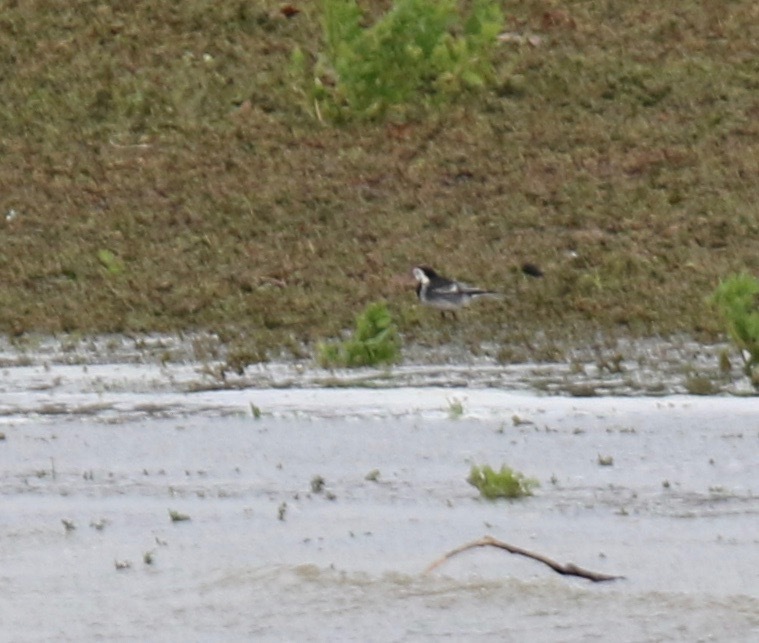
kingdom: Animalia
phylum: Chordata
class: Aves
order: Passeriformes
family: Motacillidae
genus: Motacilla
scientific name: Motacilla alba
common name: White wagtail
